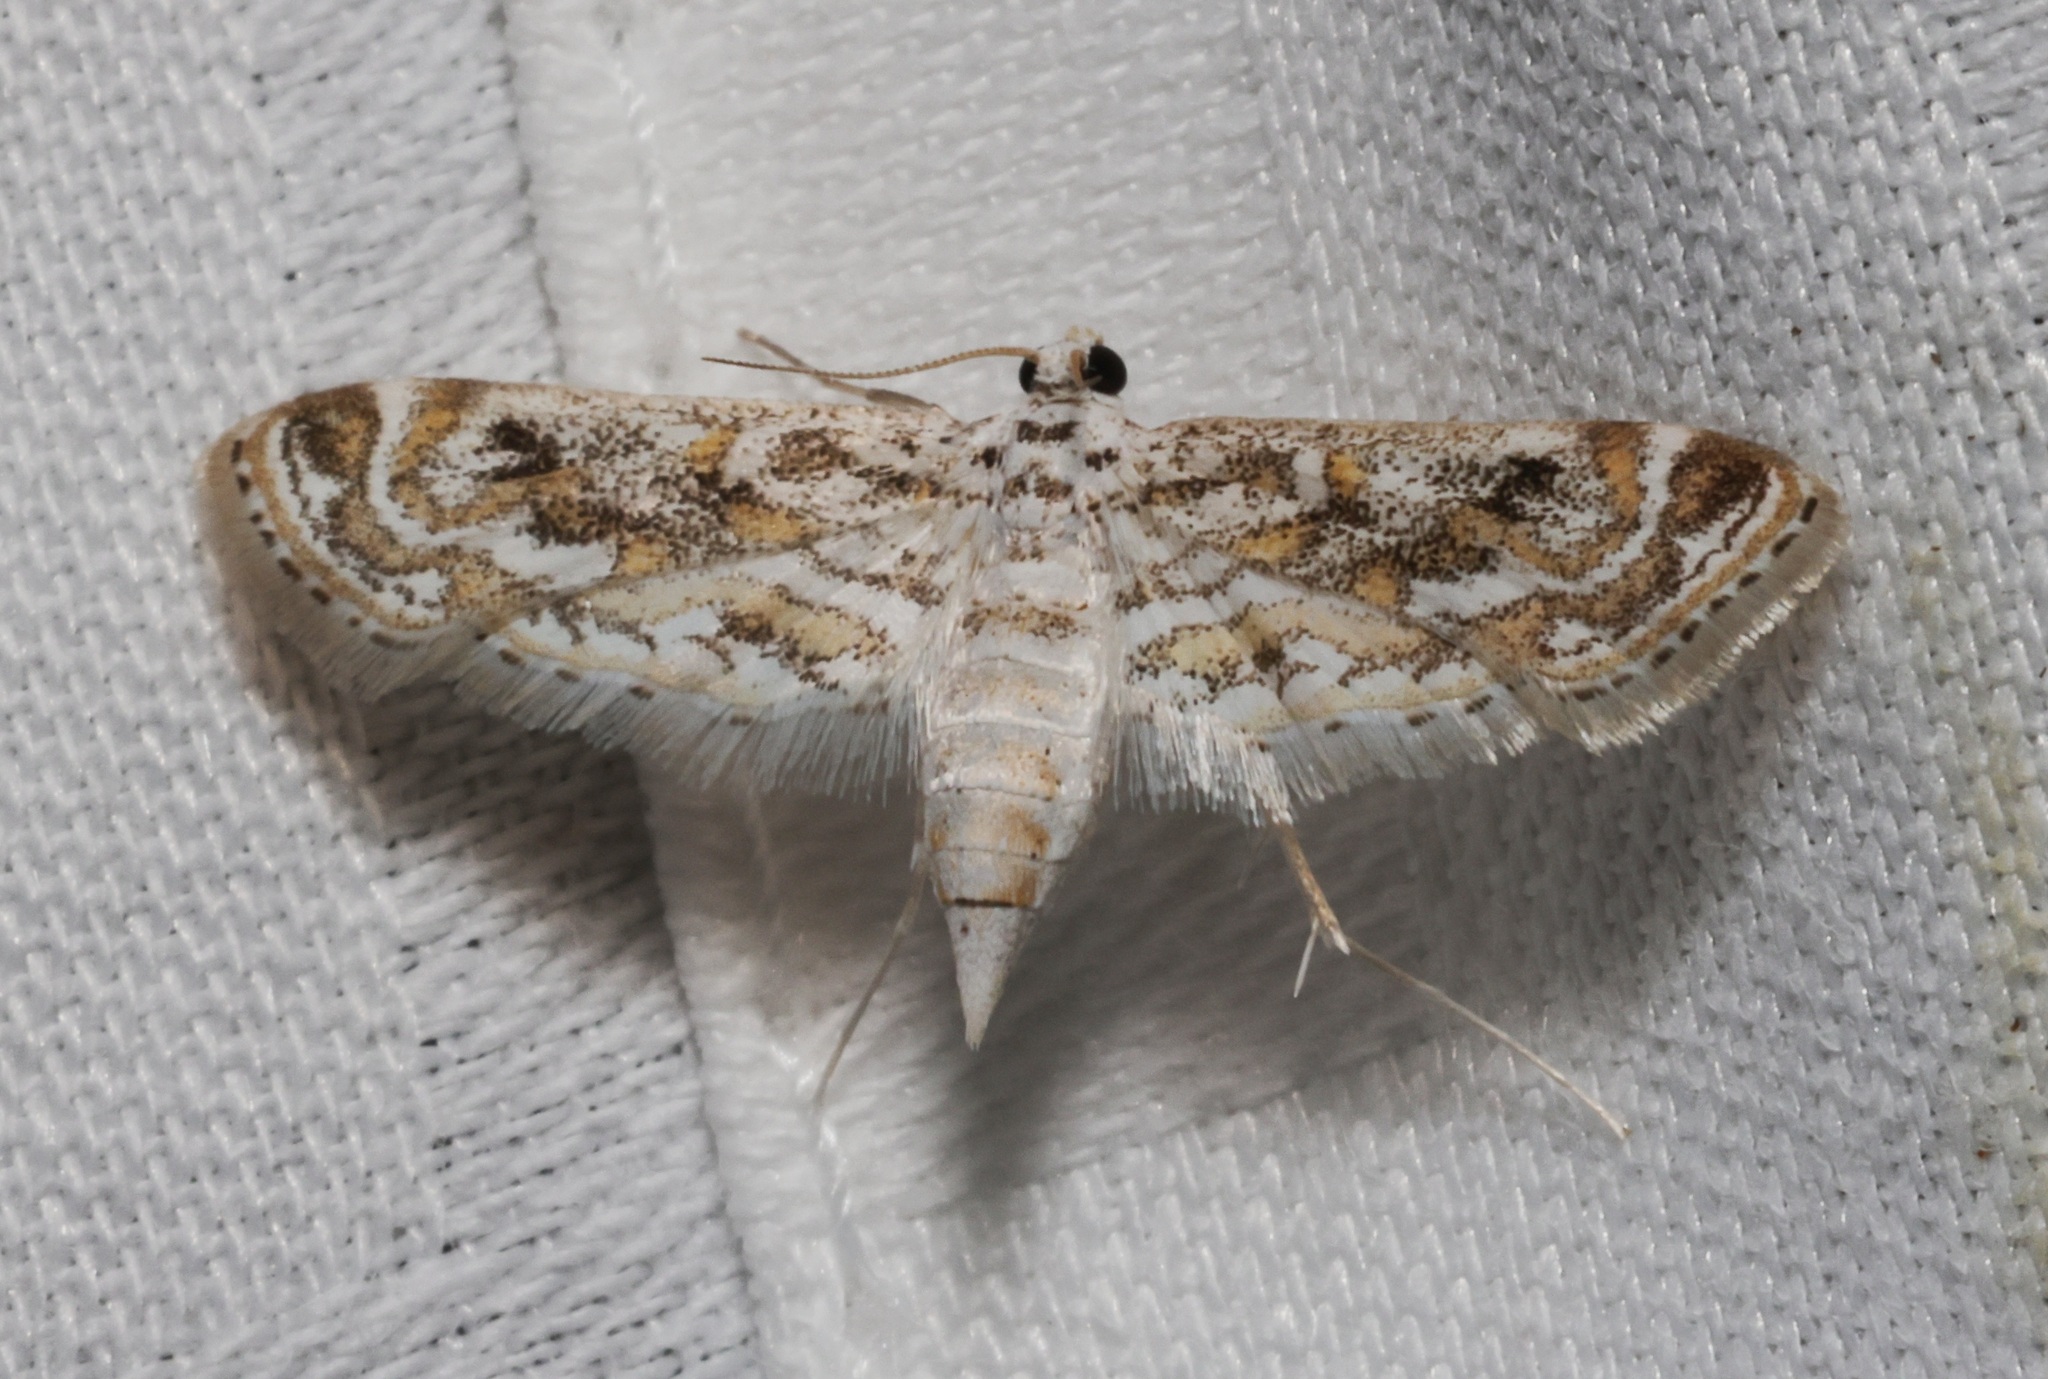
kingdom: Animalia
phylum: Arthropoda
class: Insecta
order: Lepidoptera
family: Crambidae
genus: Parapoynx
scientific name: Parapoynx diminutalis
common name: Hydrilla leafcutter
